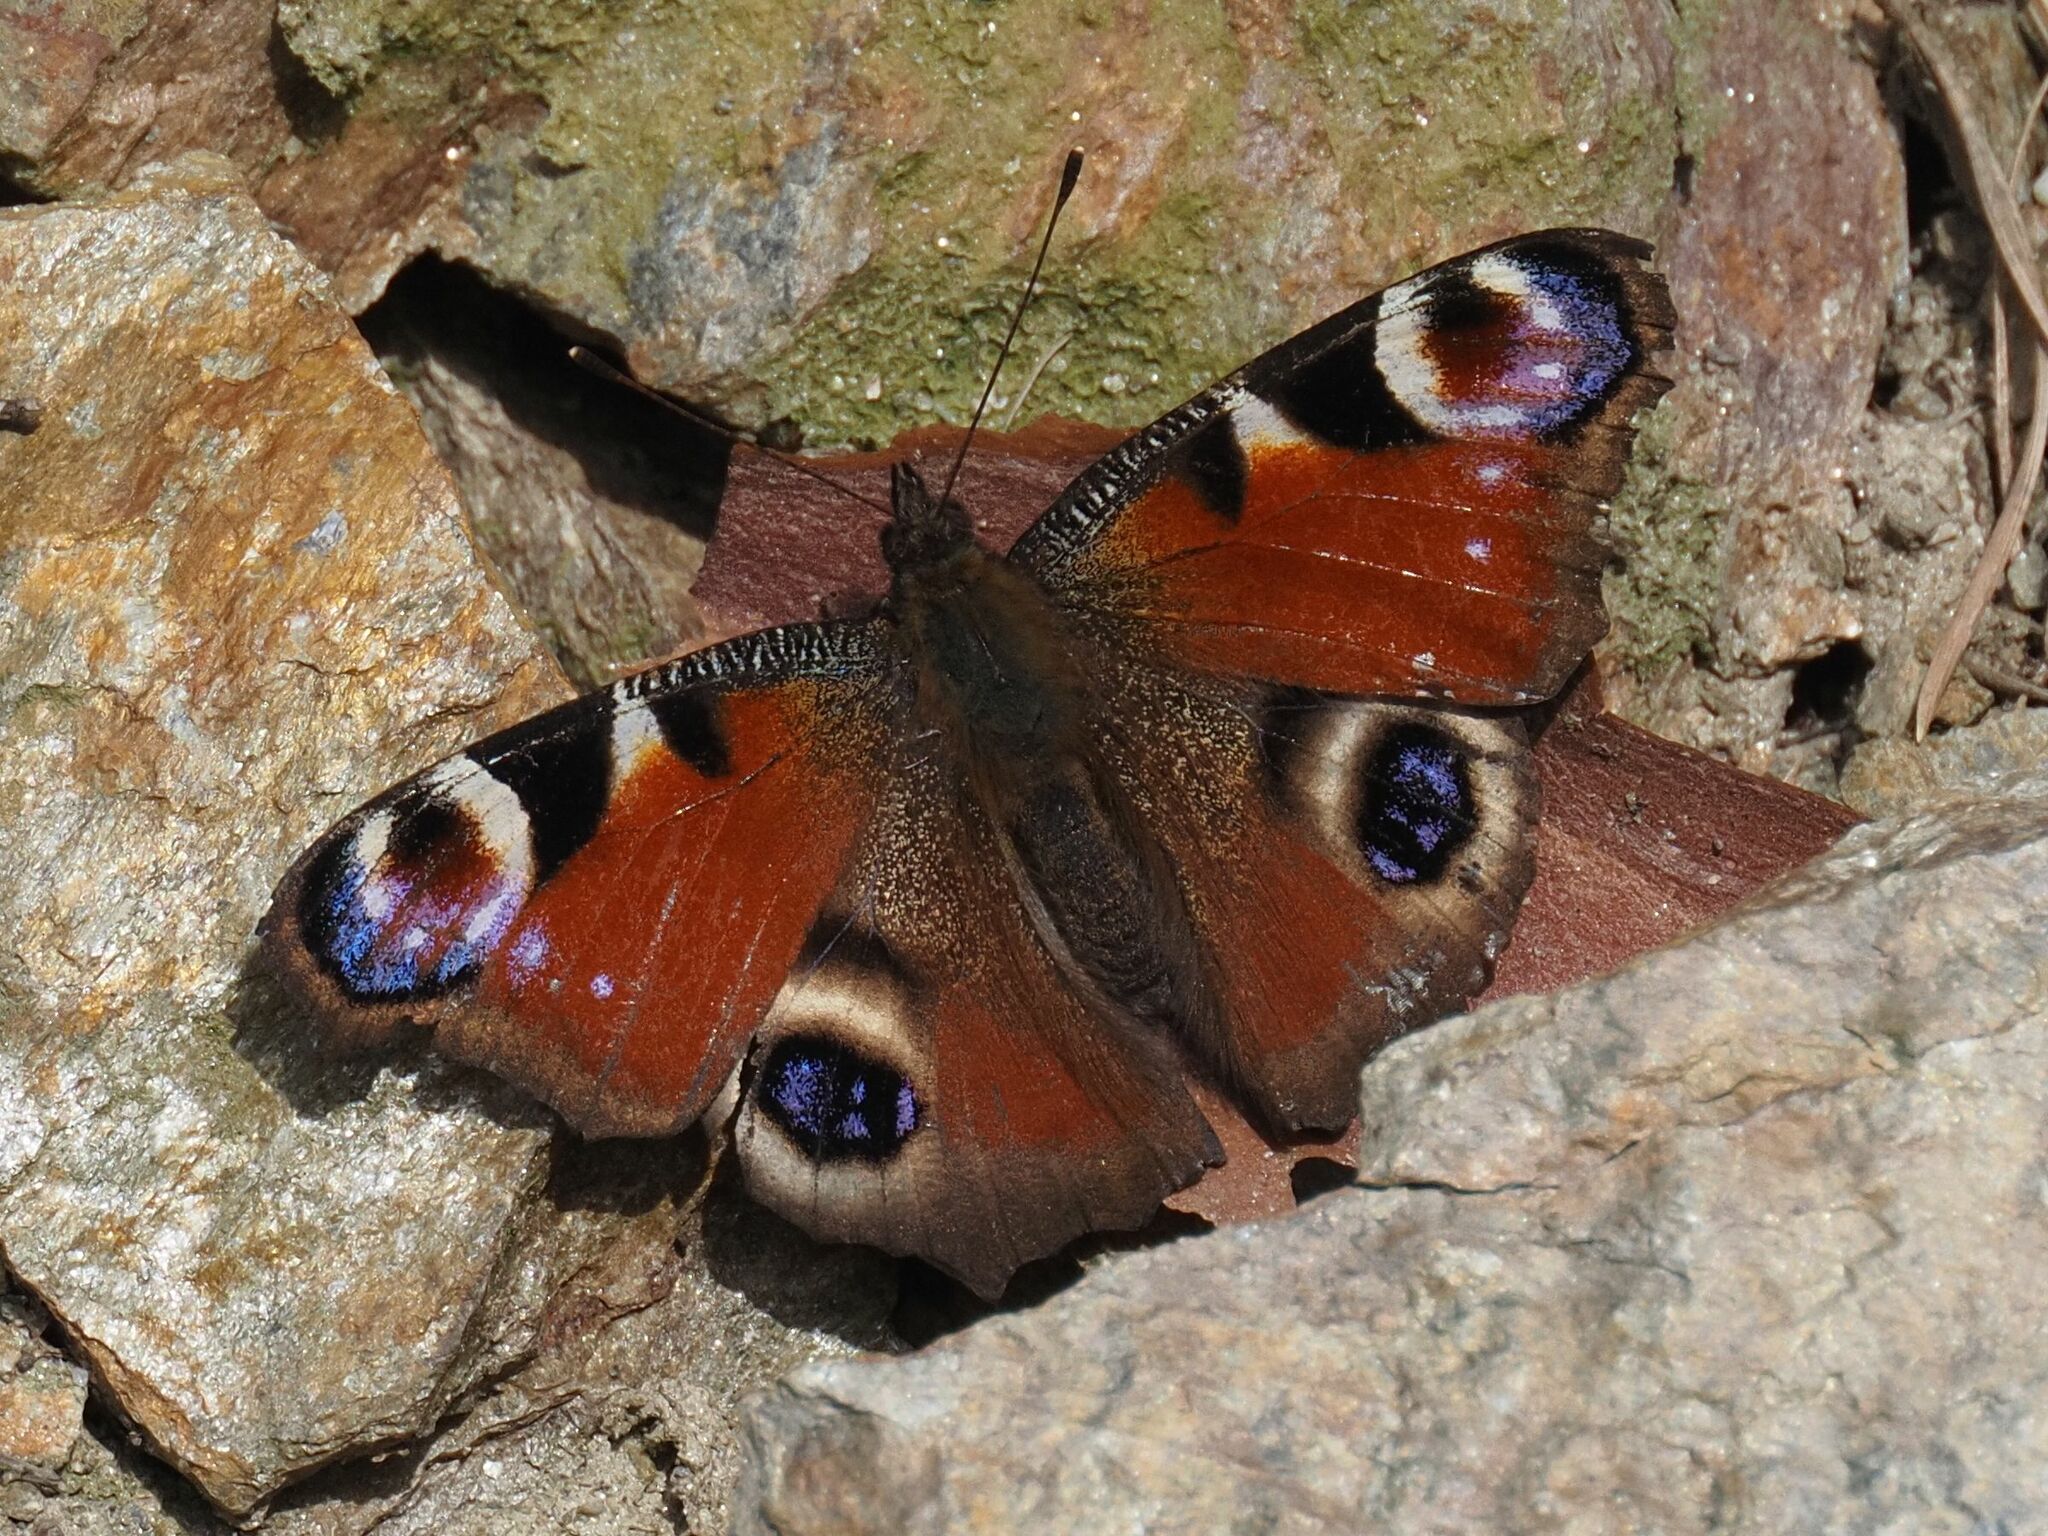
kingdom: Animalia
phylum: Arthropoda
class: Insecta
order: Lepidoptera
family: Nymphalidae
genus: Aglais
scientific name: Aglais io
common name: Peacock
